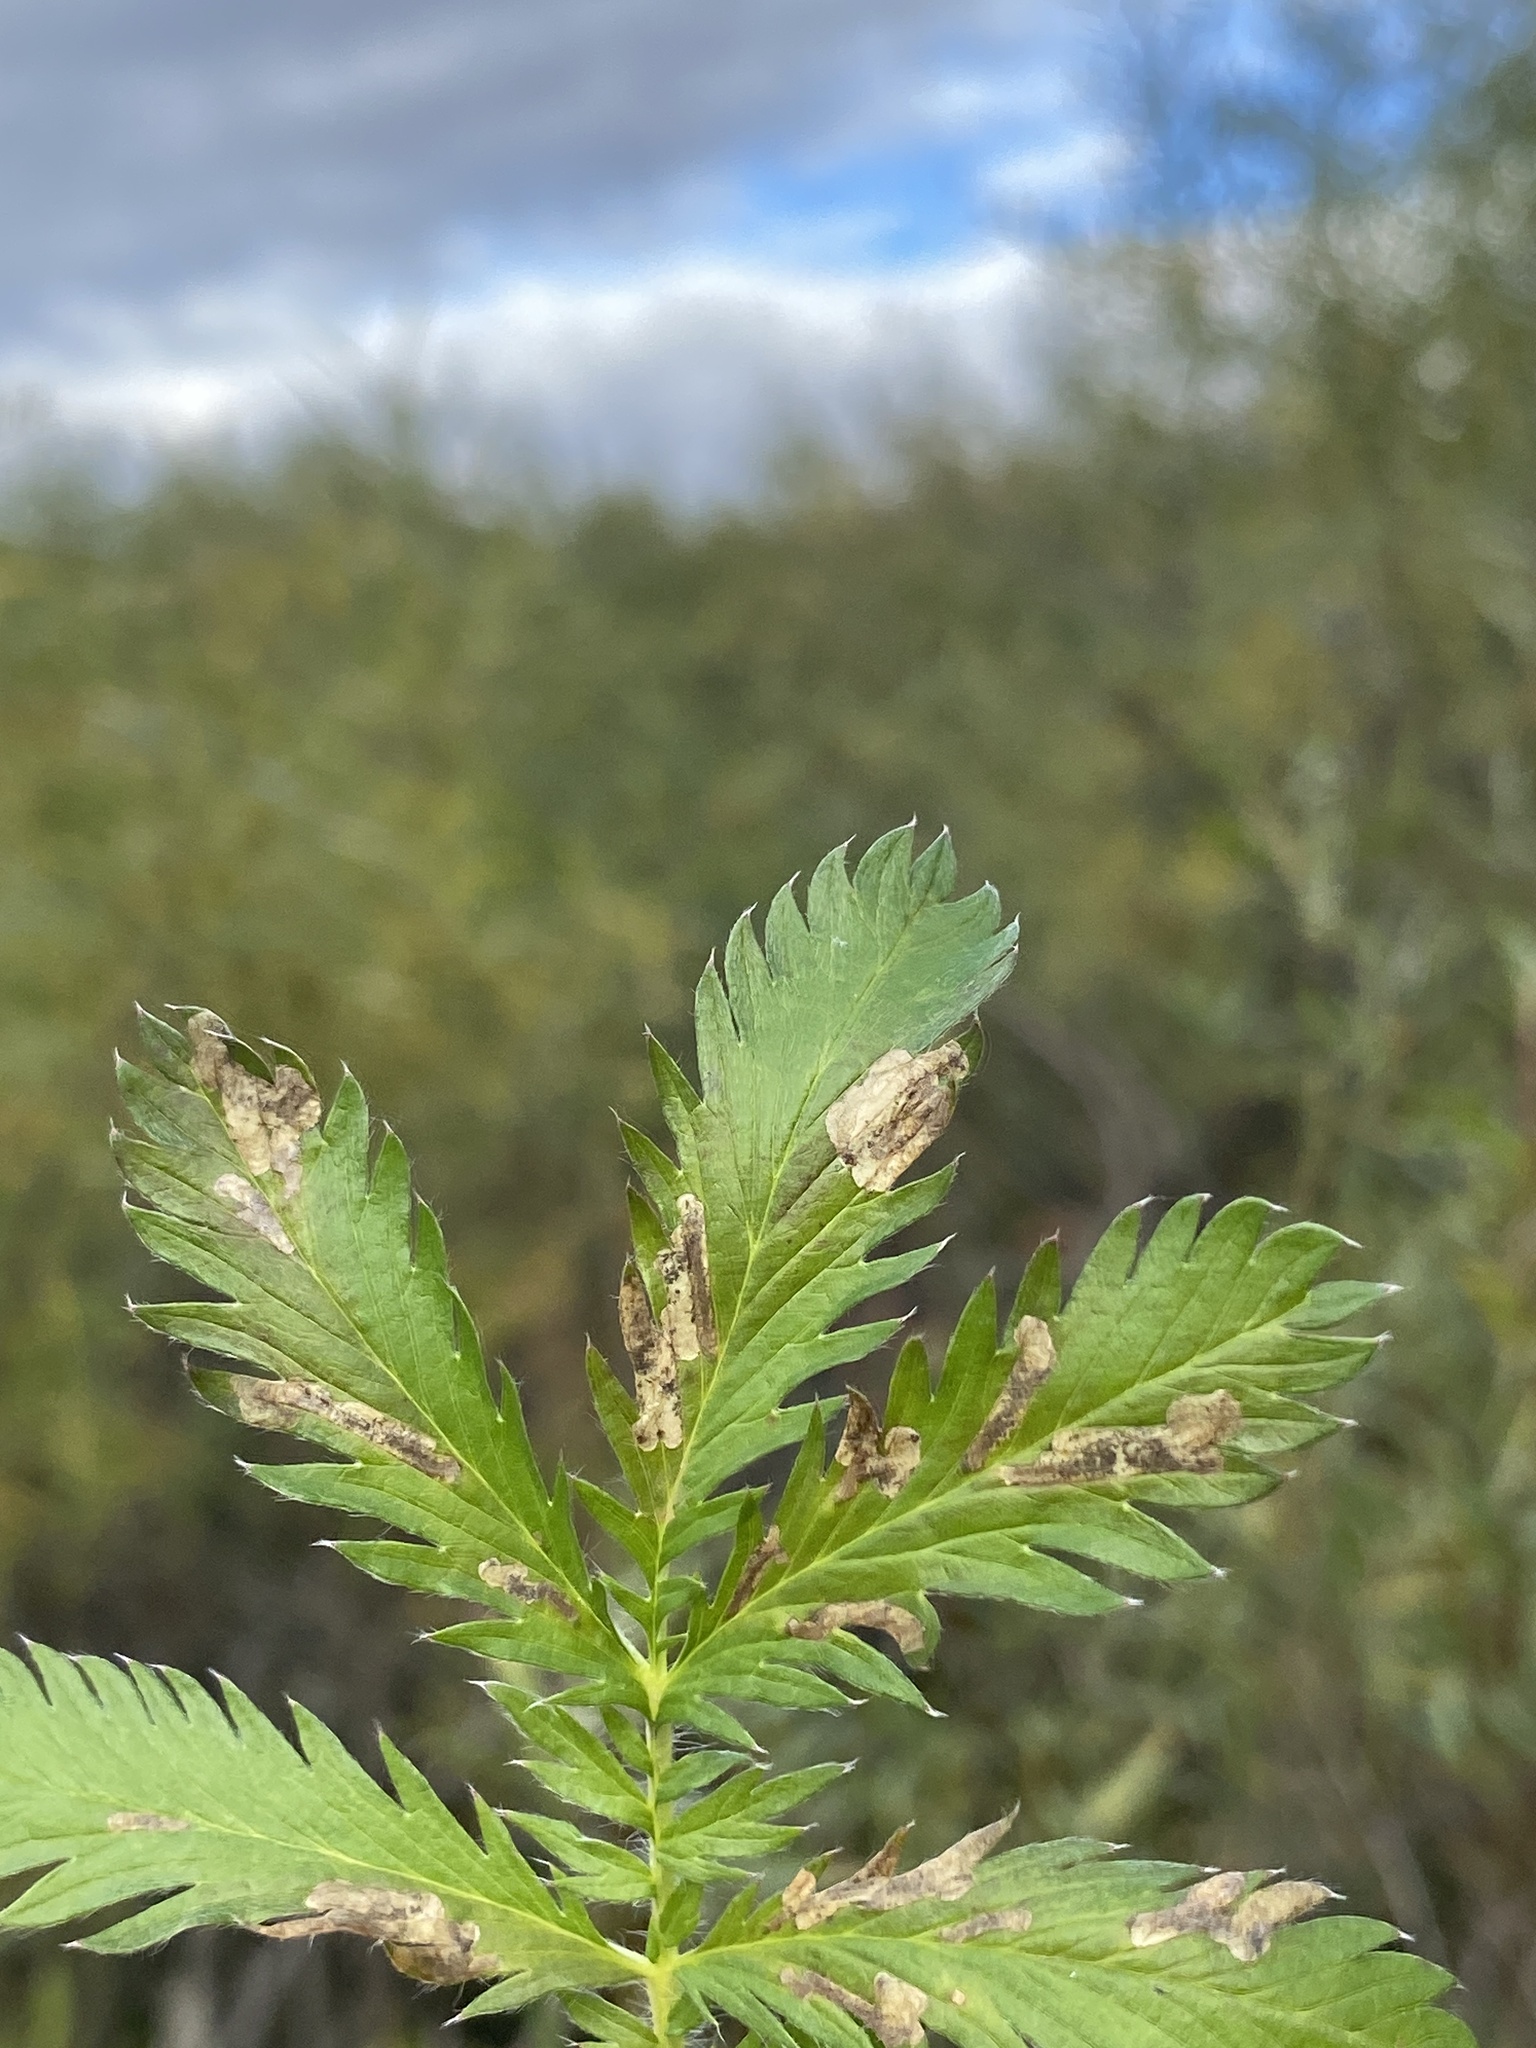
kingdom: Animalia
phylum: Arthropoda
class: Insecta
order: Hymenoptera
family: Tenthredinidae
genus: Fenella
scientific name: Fenella nigrita
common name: Tenthredid wasp
